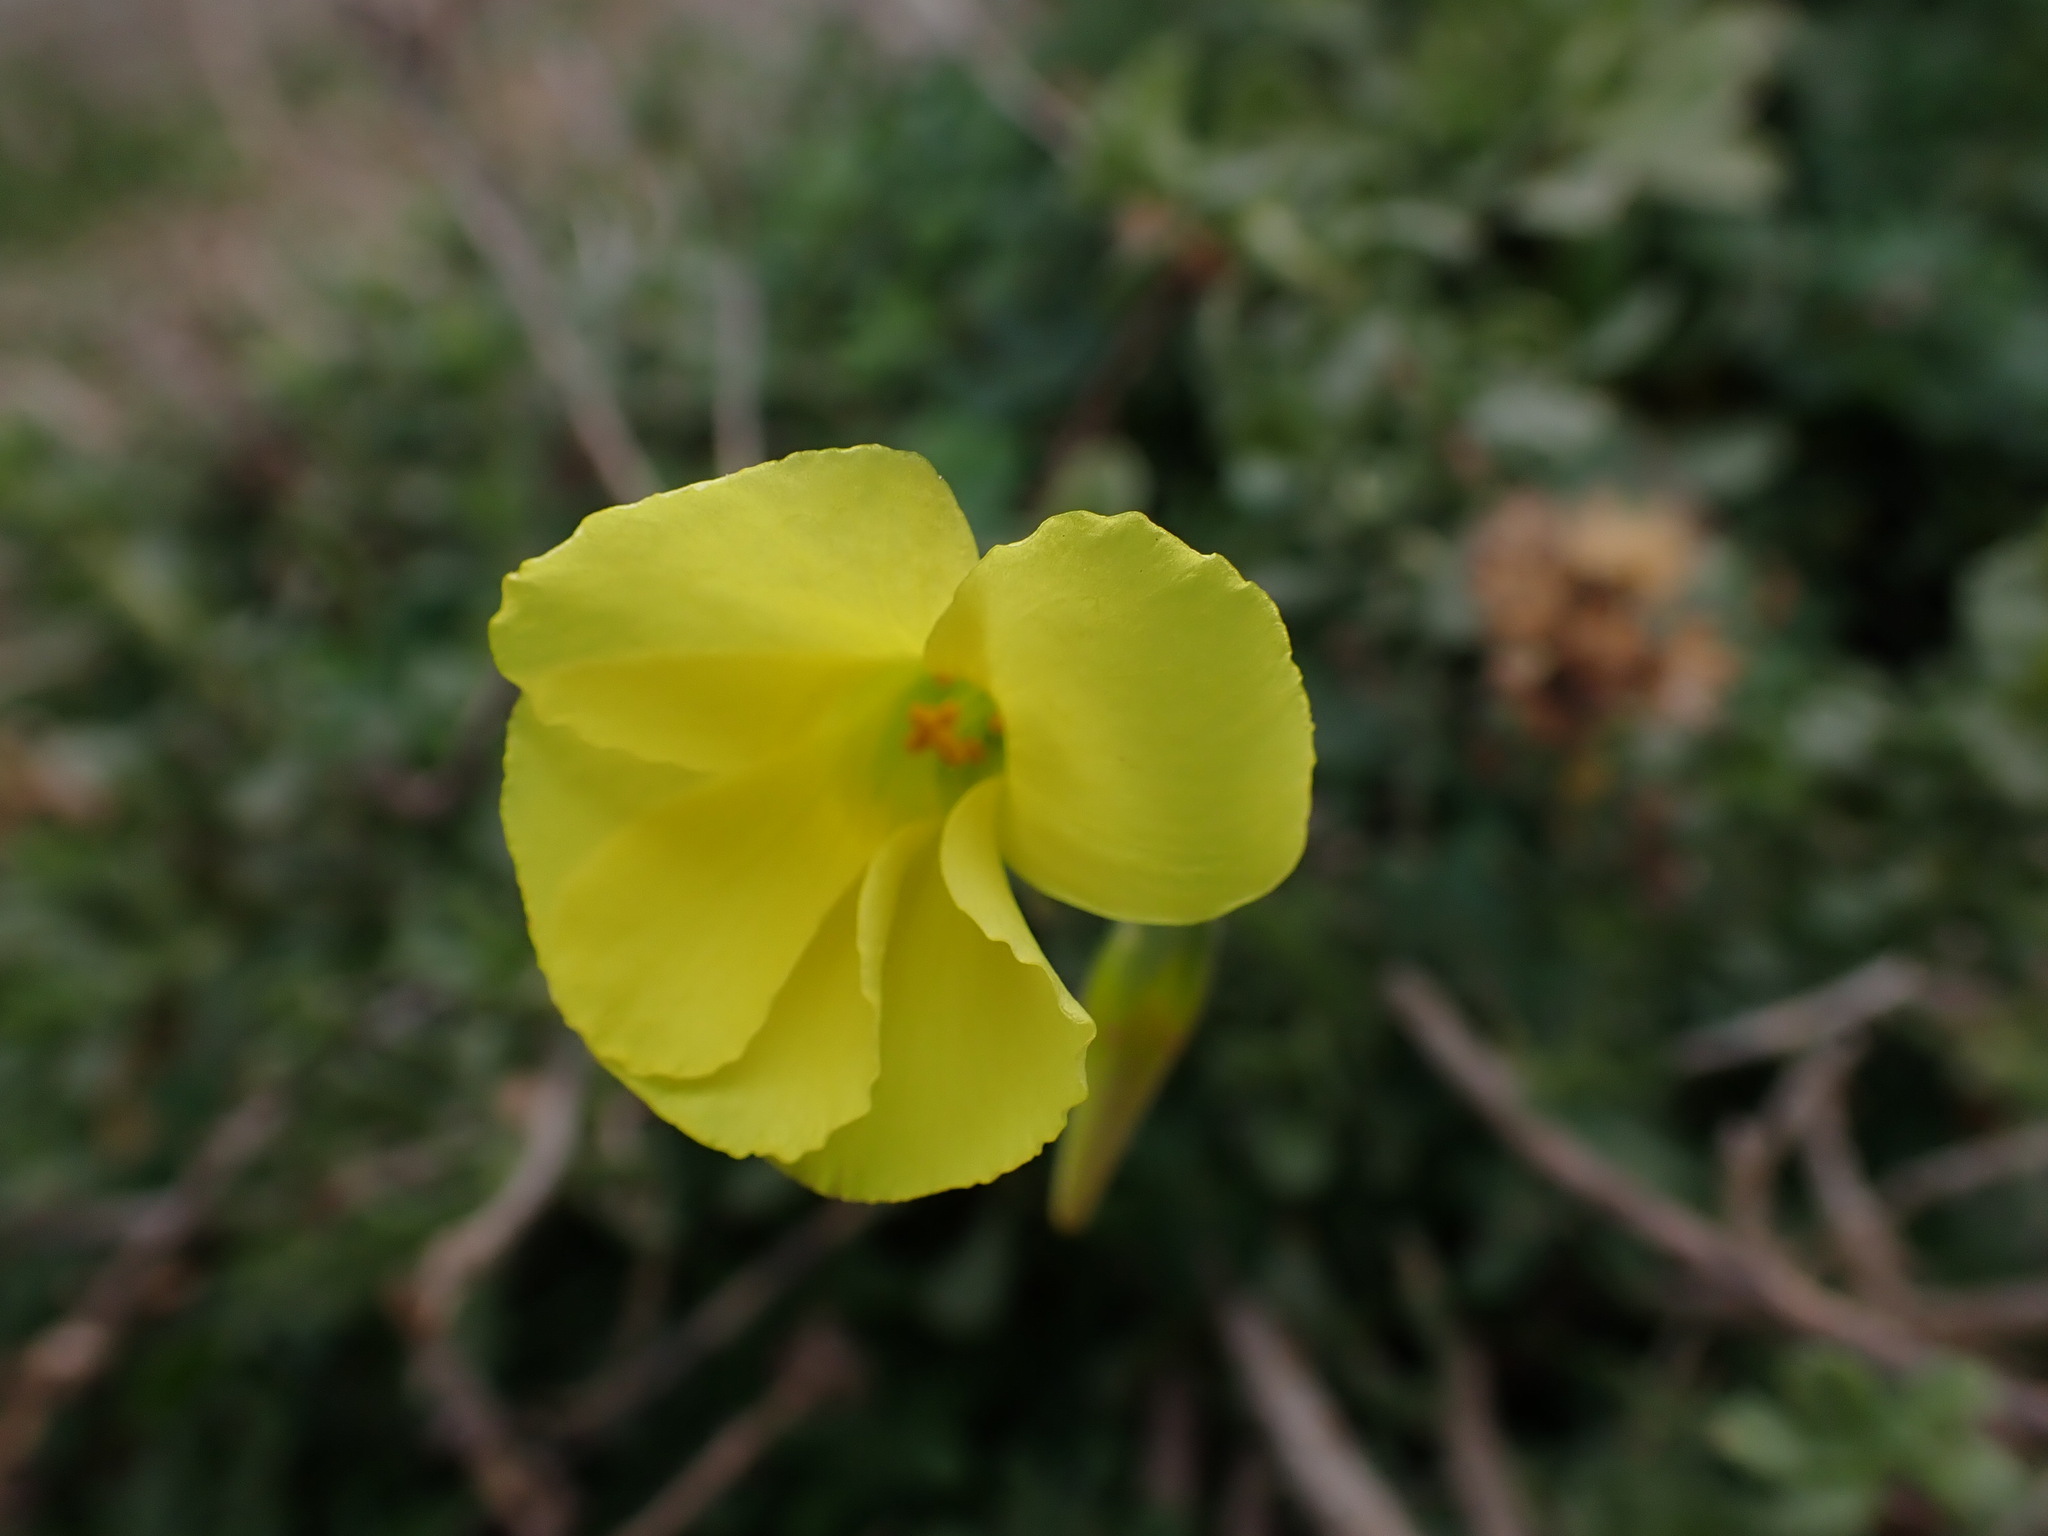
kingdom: Plantae
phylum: Tracheophyta
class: Magnoliopsida
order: Oxalidales
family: Oxalidaceae
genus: Oxalis
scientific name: Oxalis pes-caprae
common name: Bermuda-buttercup
